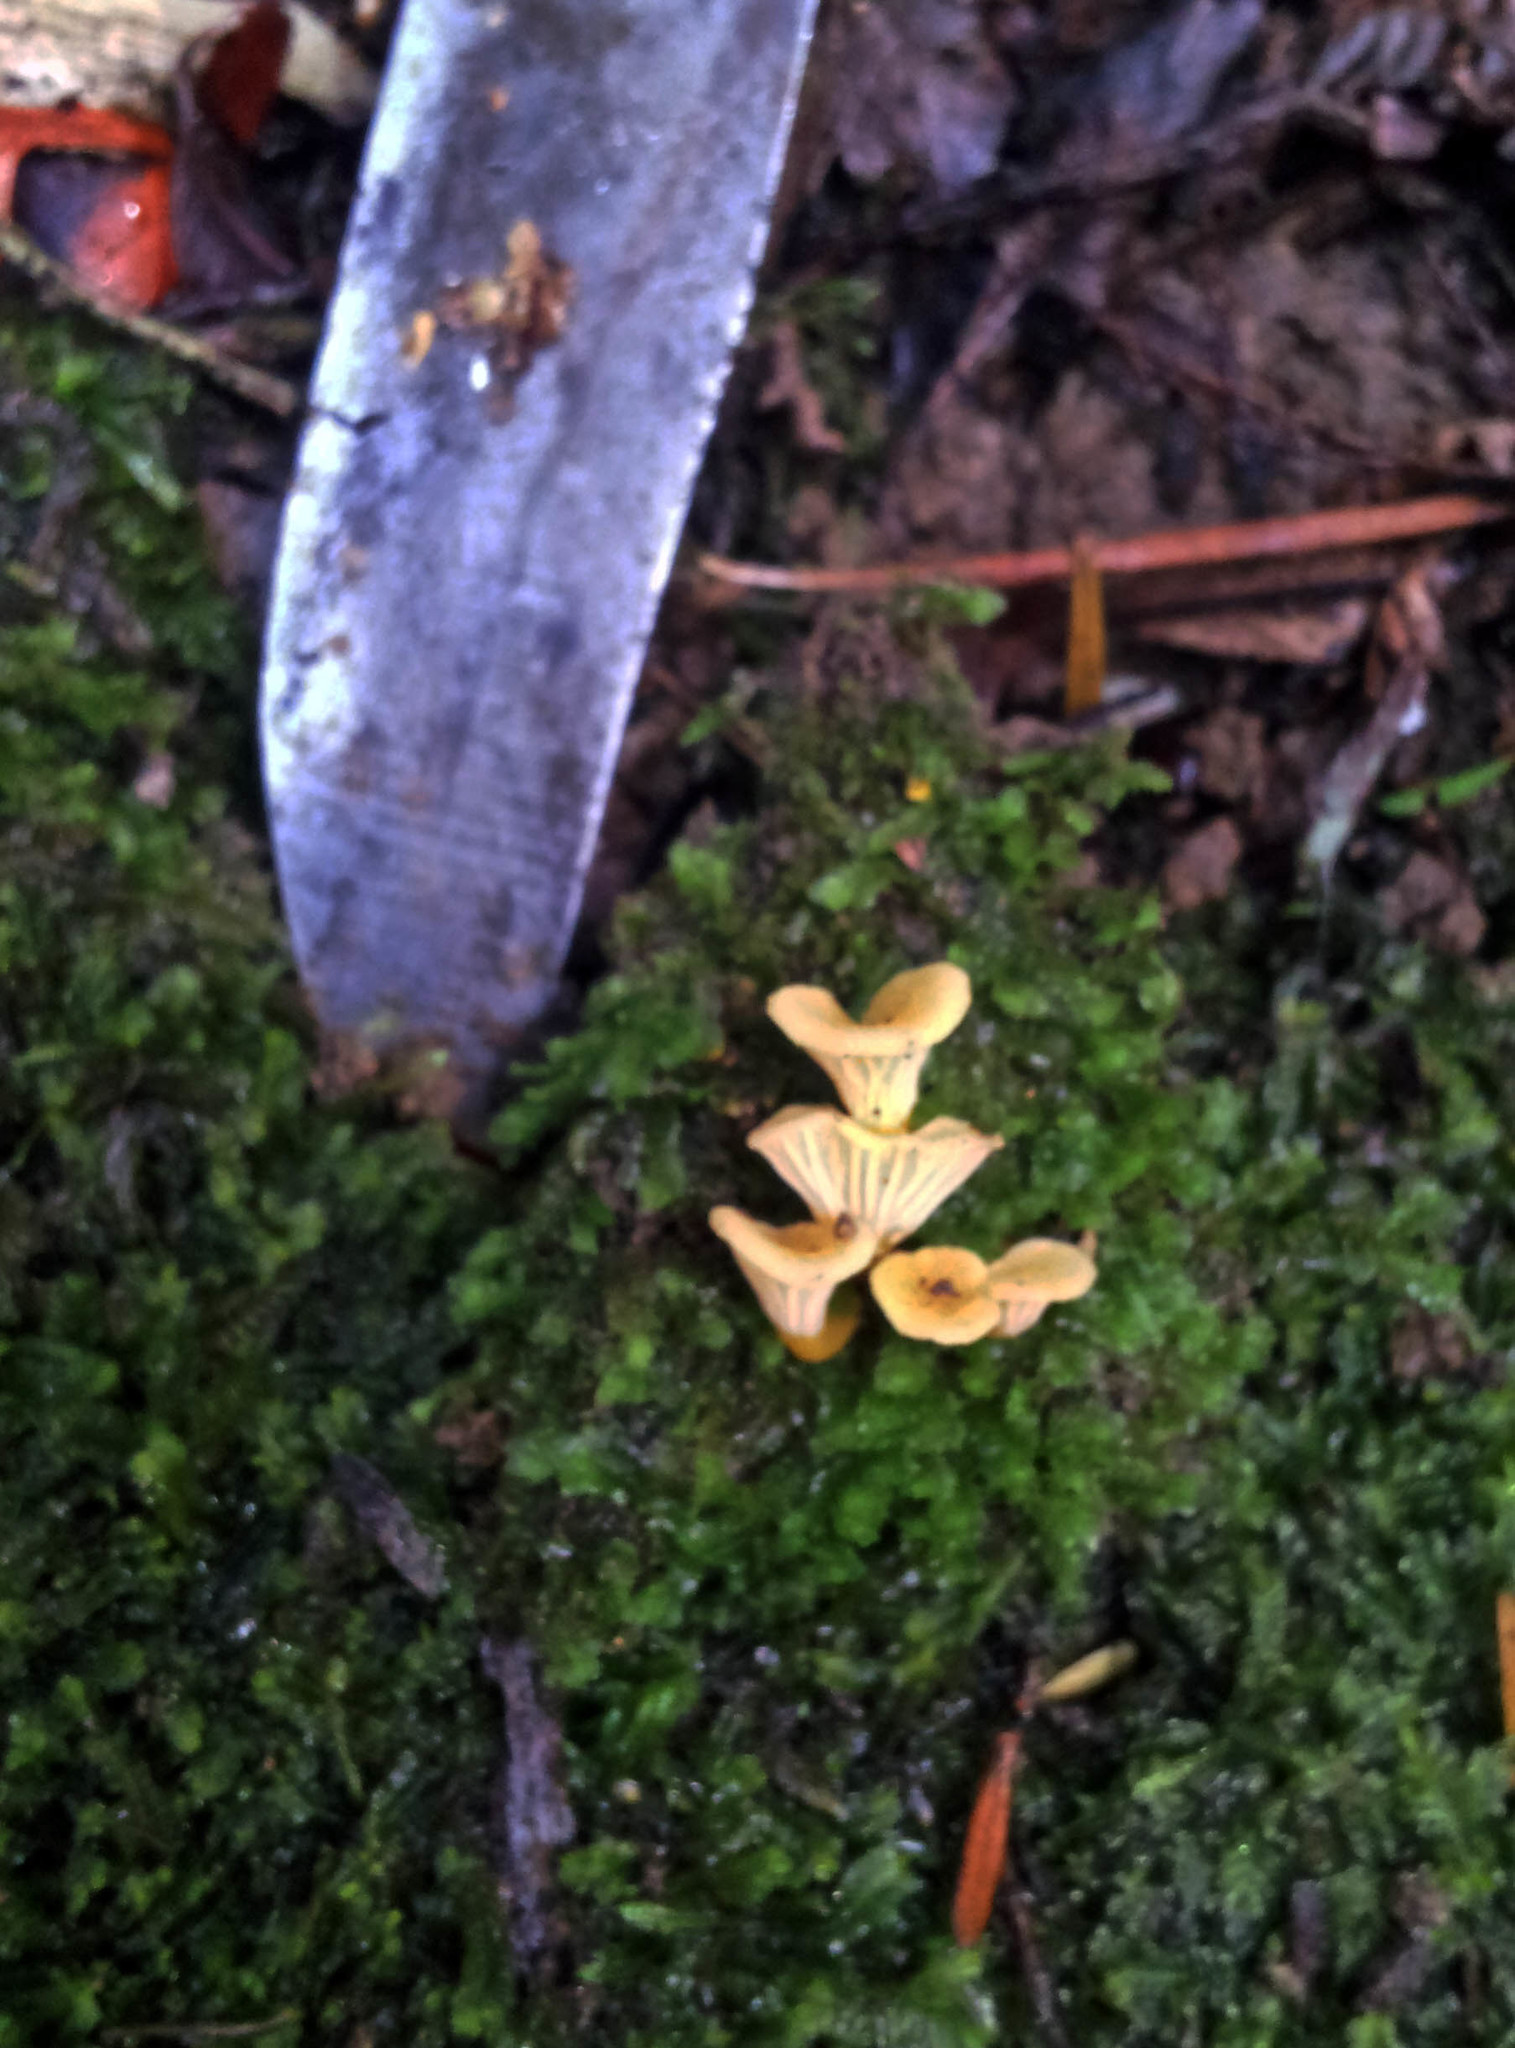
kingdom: Fungi
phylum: Basidiomycota
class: Agaricomycetes
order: Cantharellales
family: Hydnaceae
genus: Cantharellus
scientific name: Cantharellus wellingtonensis
